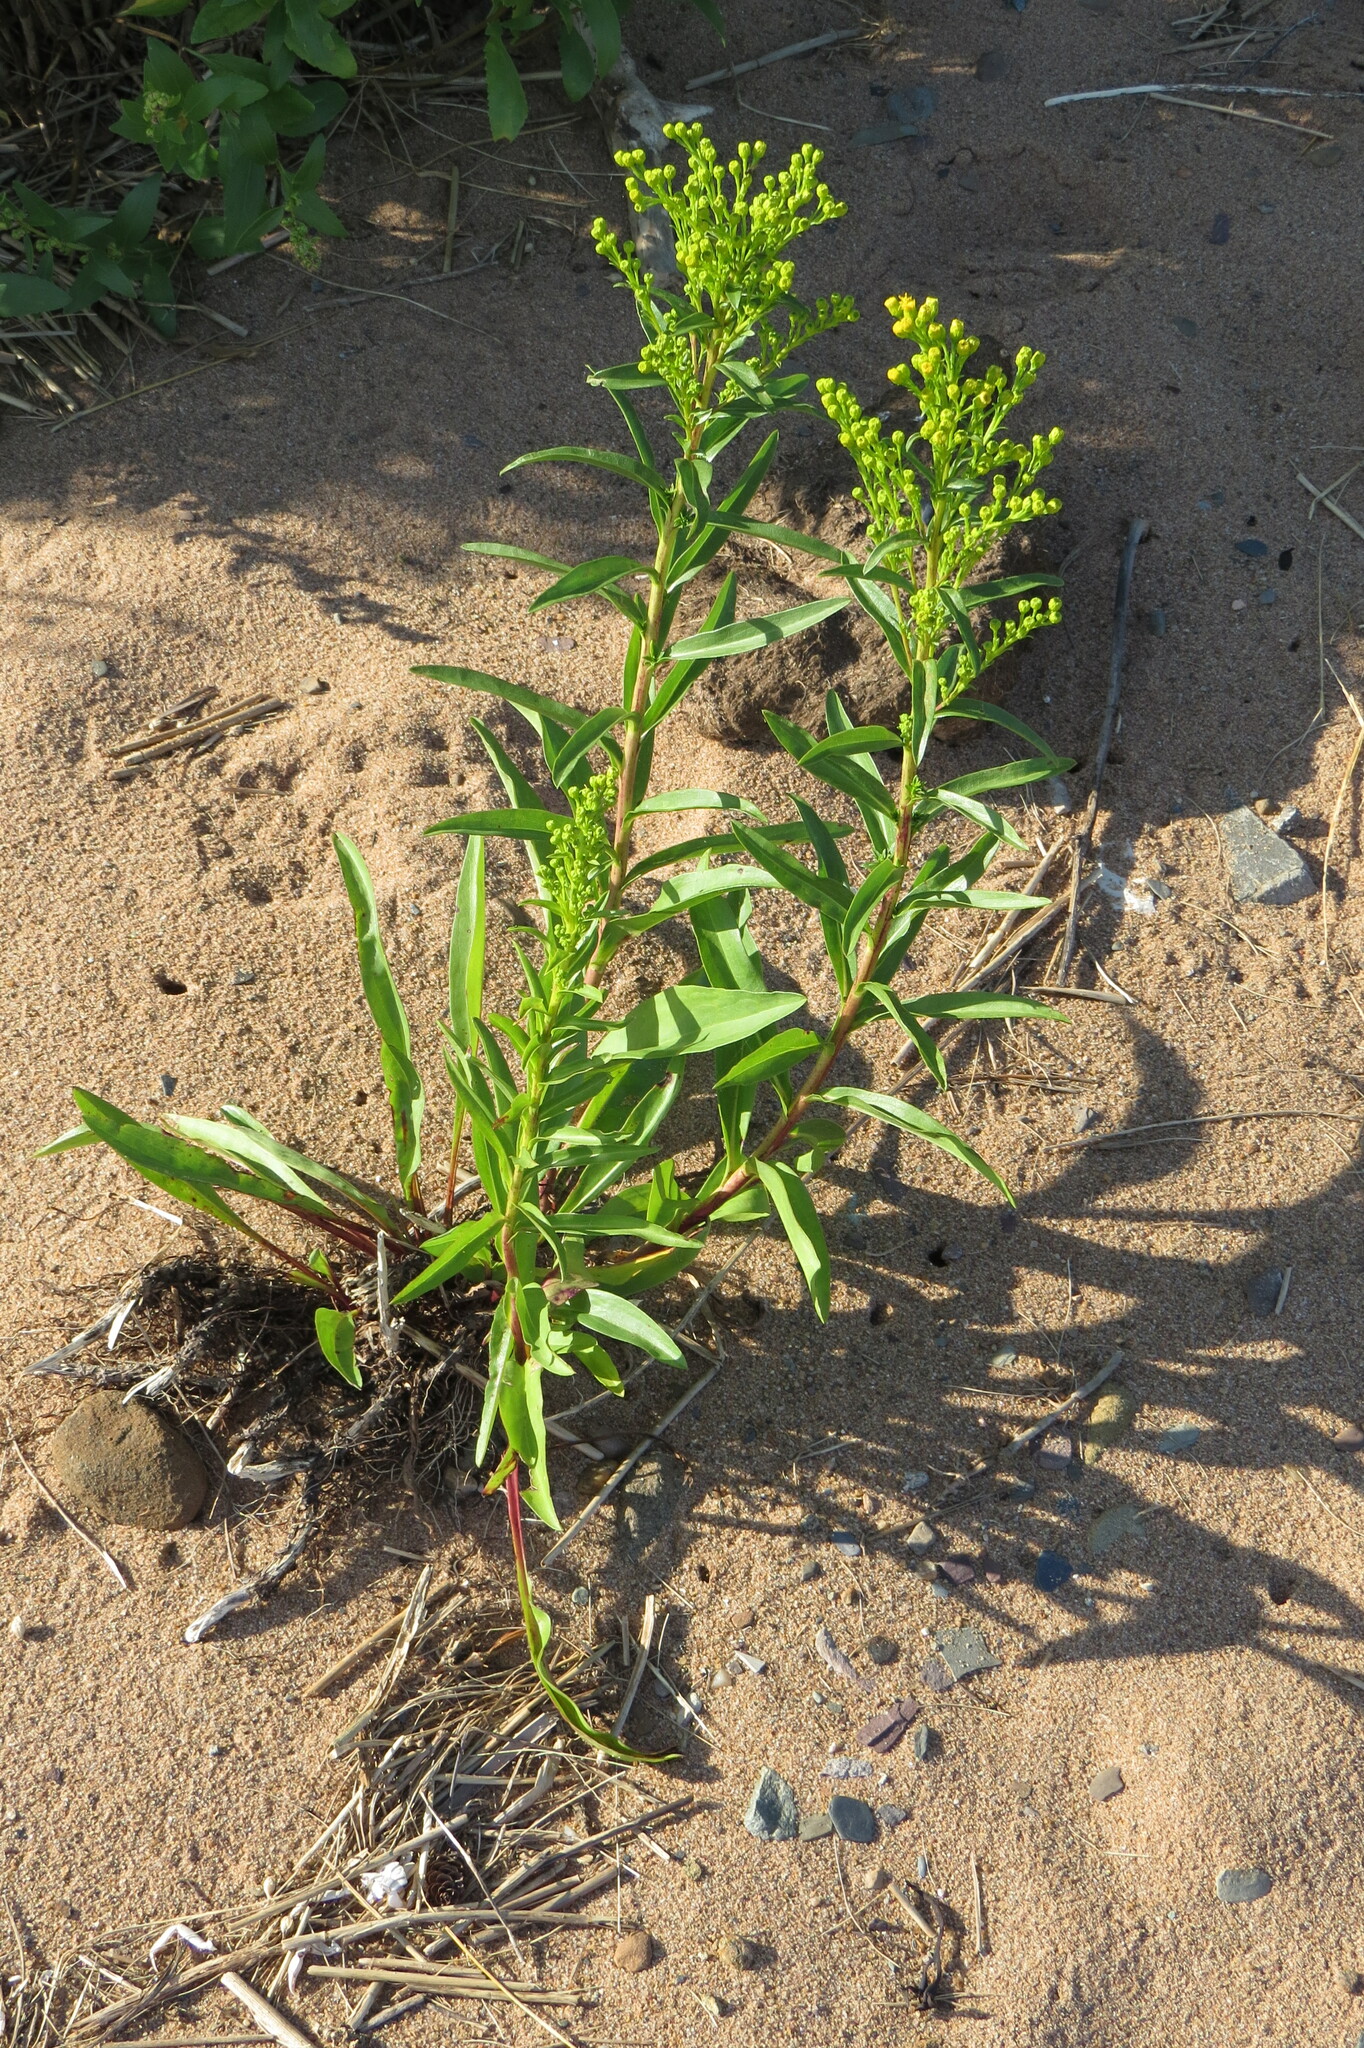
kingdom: Plantae
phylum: Tracheophyta
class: Magnoliopsida
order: Asterales
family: Asteraceae
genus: Solidago
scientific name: Solidago sempervirens
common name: Salt-marsh goldenrod
